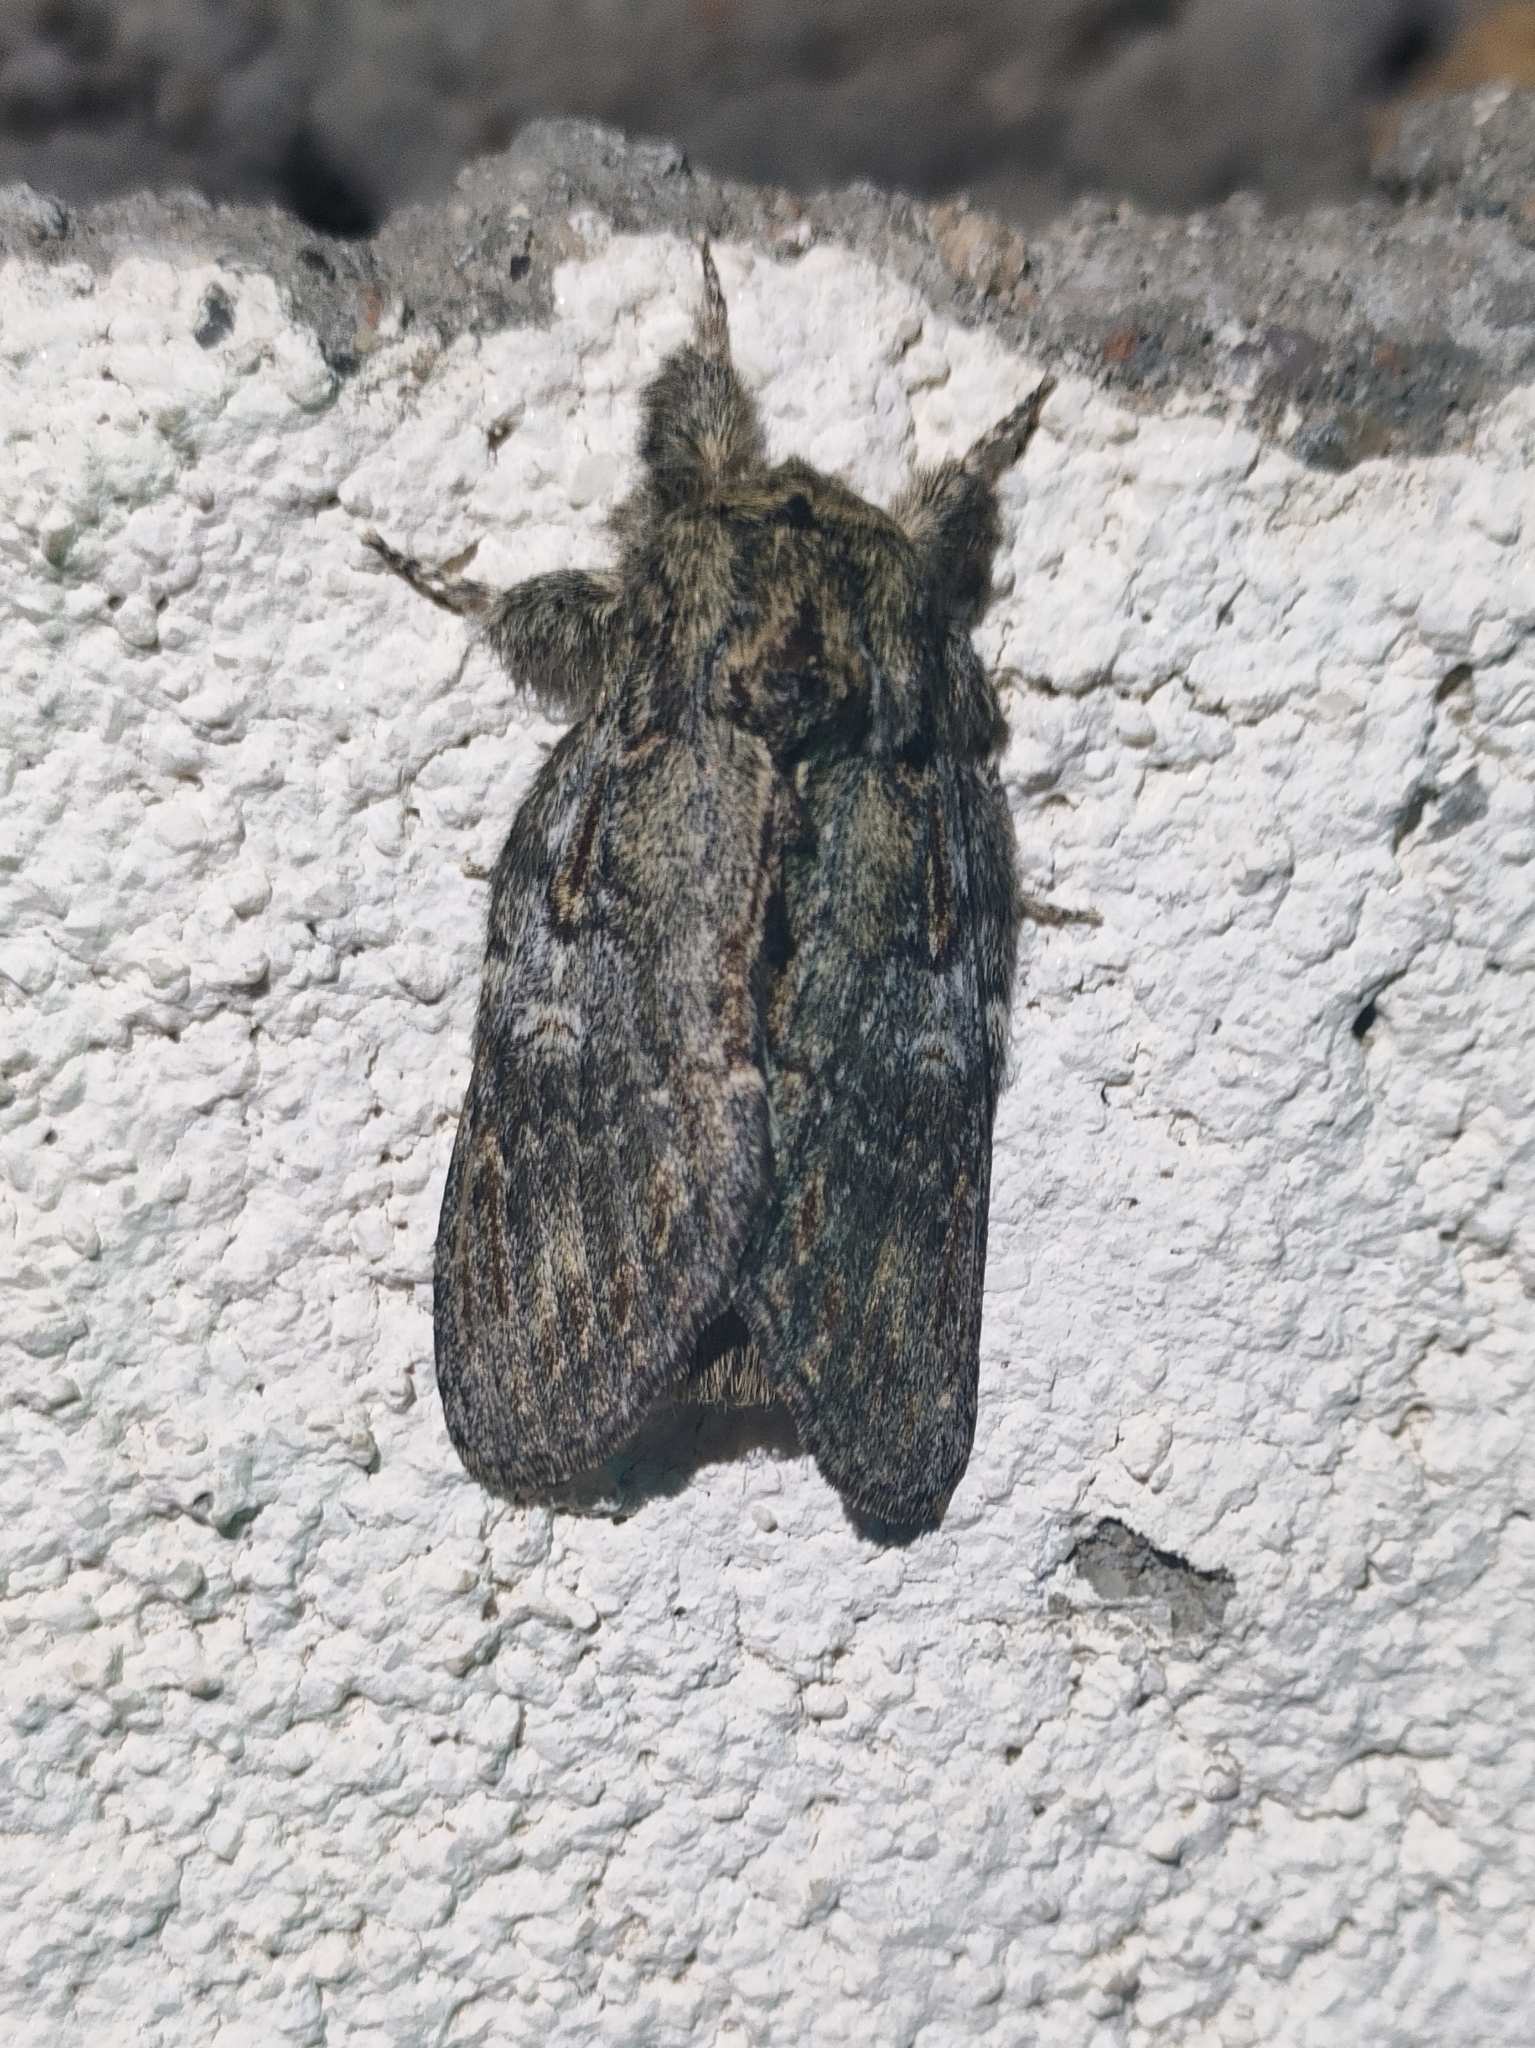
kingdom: Animalia
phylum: Arthropoda
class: Insecta
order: Lepidoptera
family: Notodontidae
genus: Peridea
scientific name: Peridea anceps
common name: Great prominent
